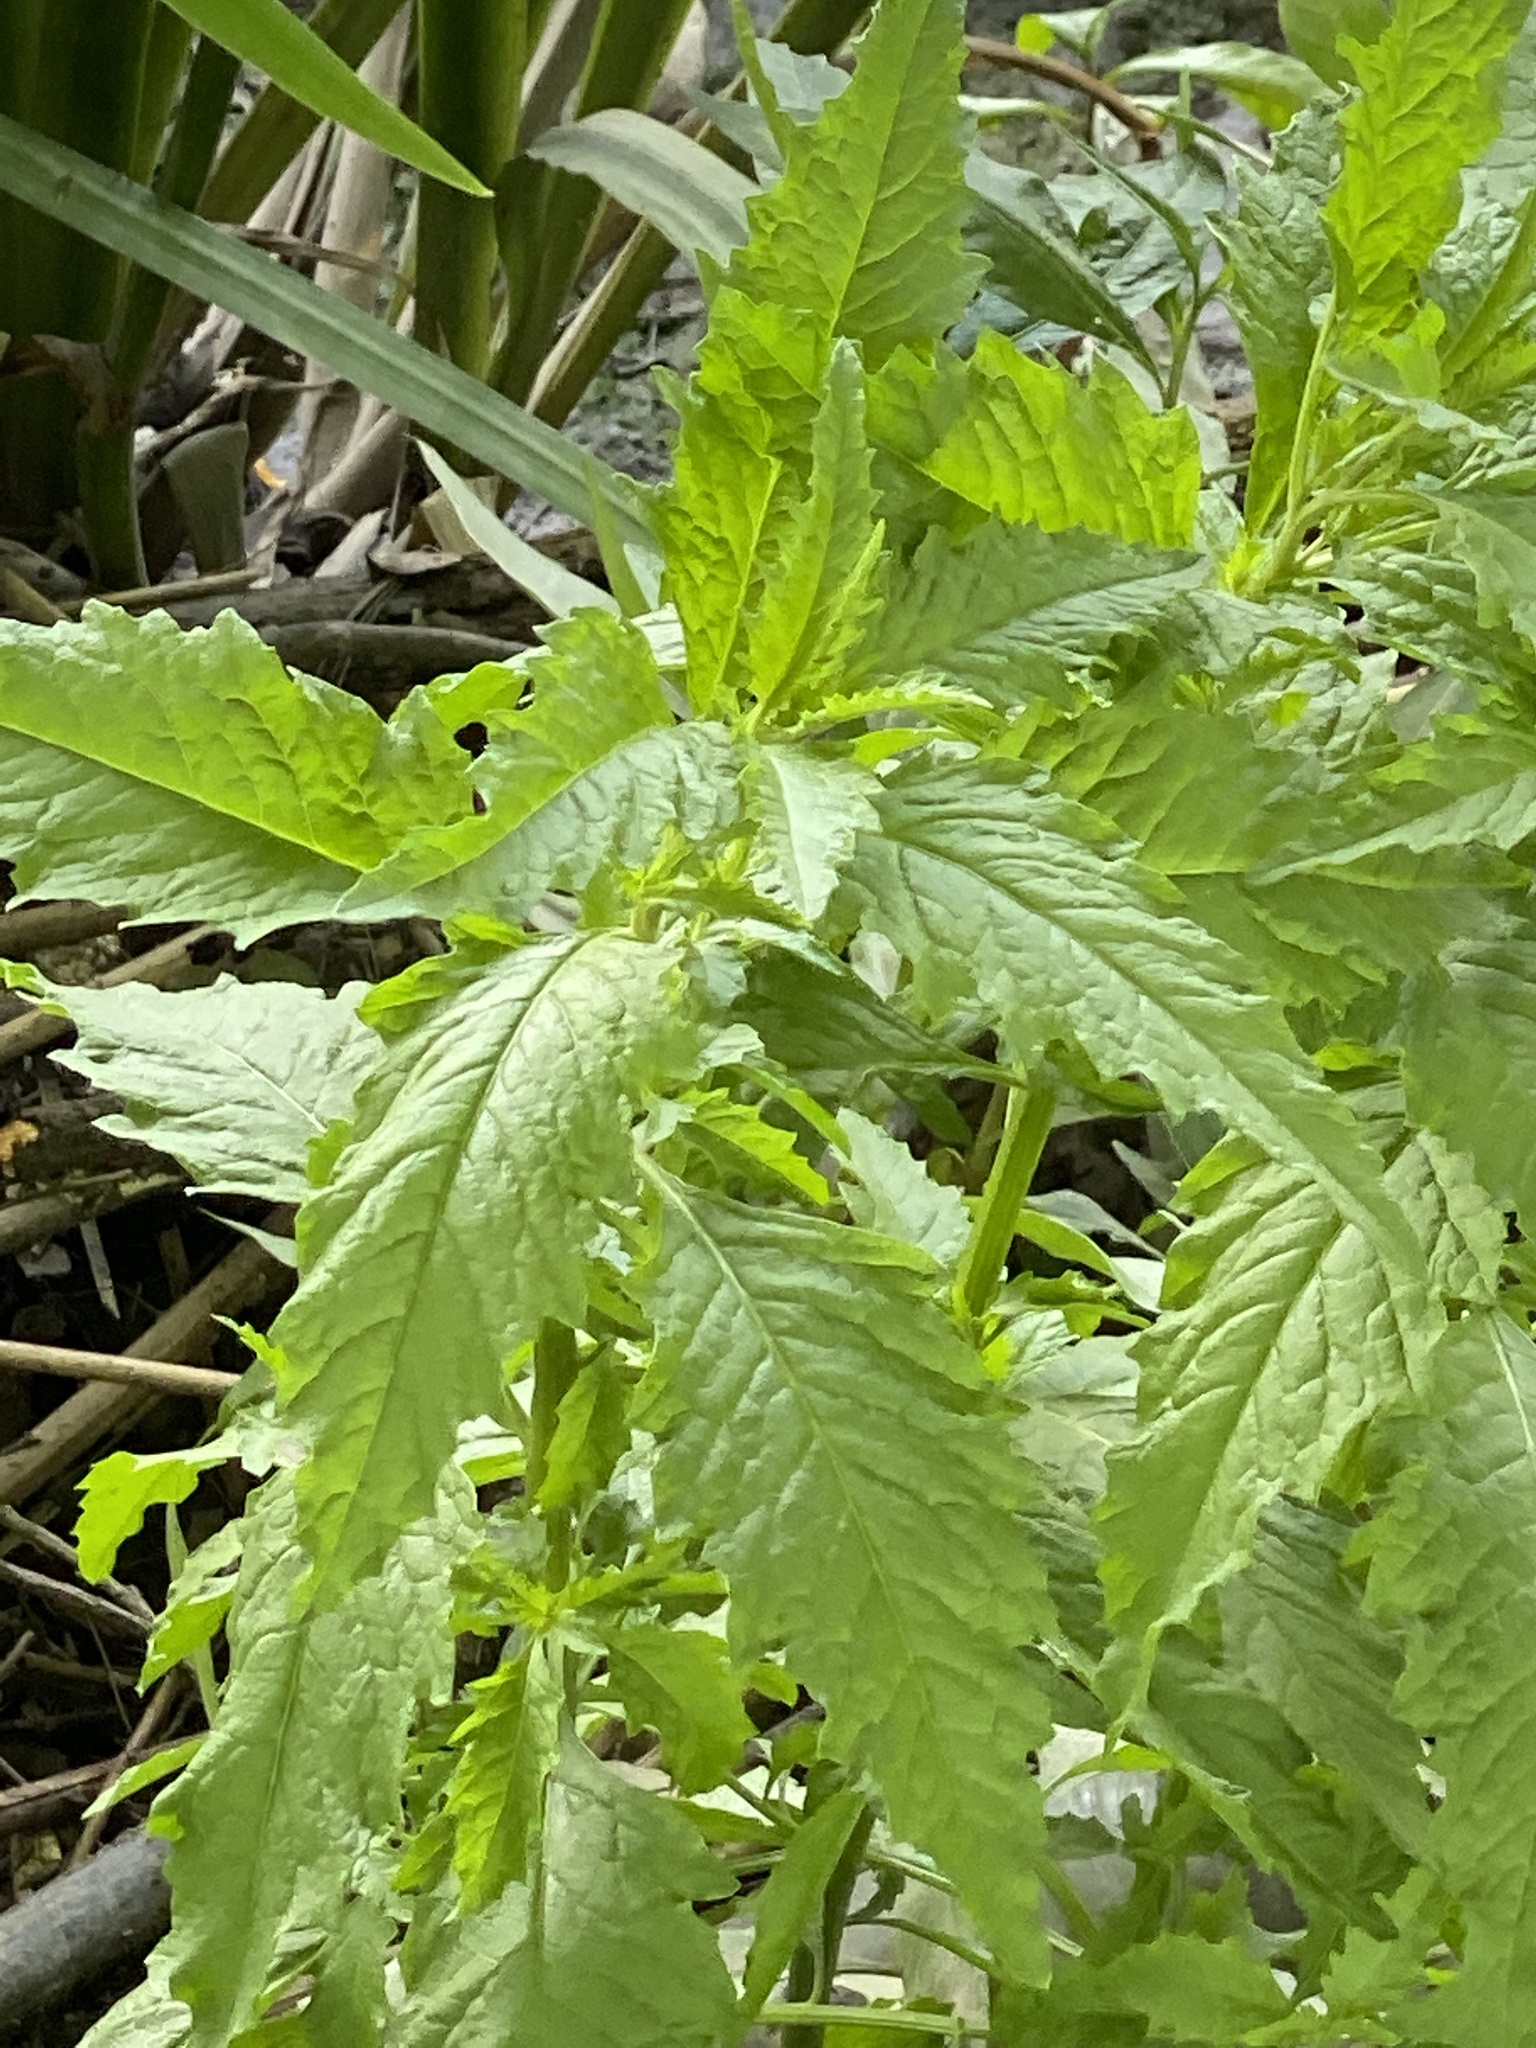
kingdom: Plantae
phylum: Tracheophyta
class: Magnoliopsida
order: Caryophyllales
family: Amaranthaceae
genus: Dysphania
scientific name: Dysphania ambrosioides
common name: Wormseed
